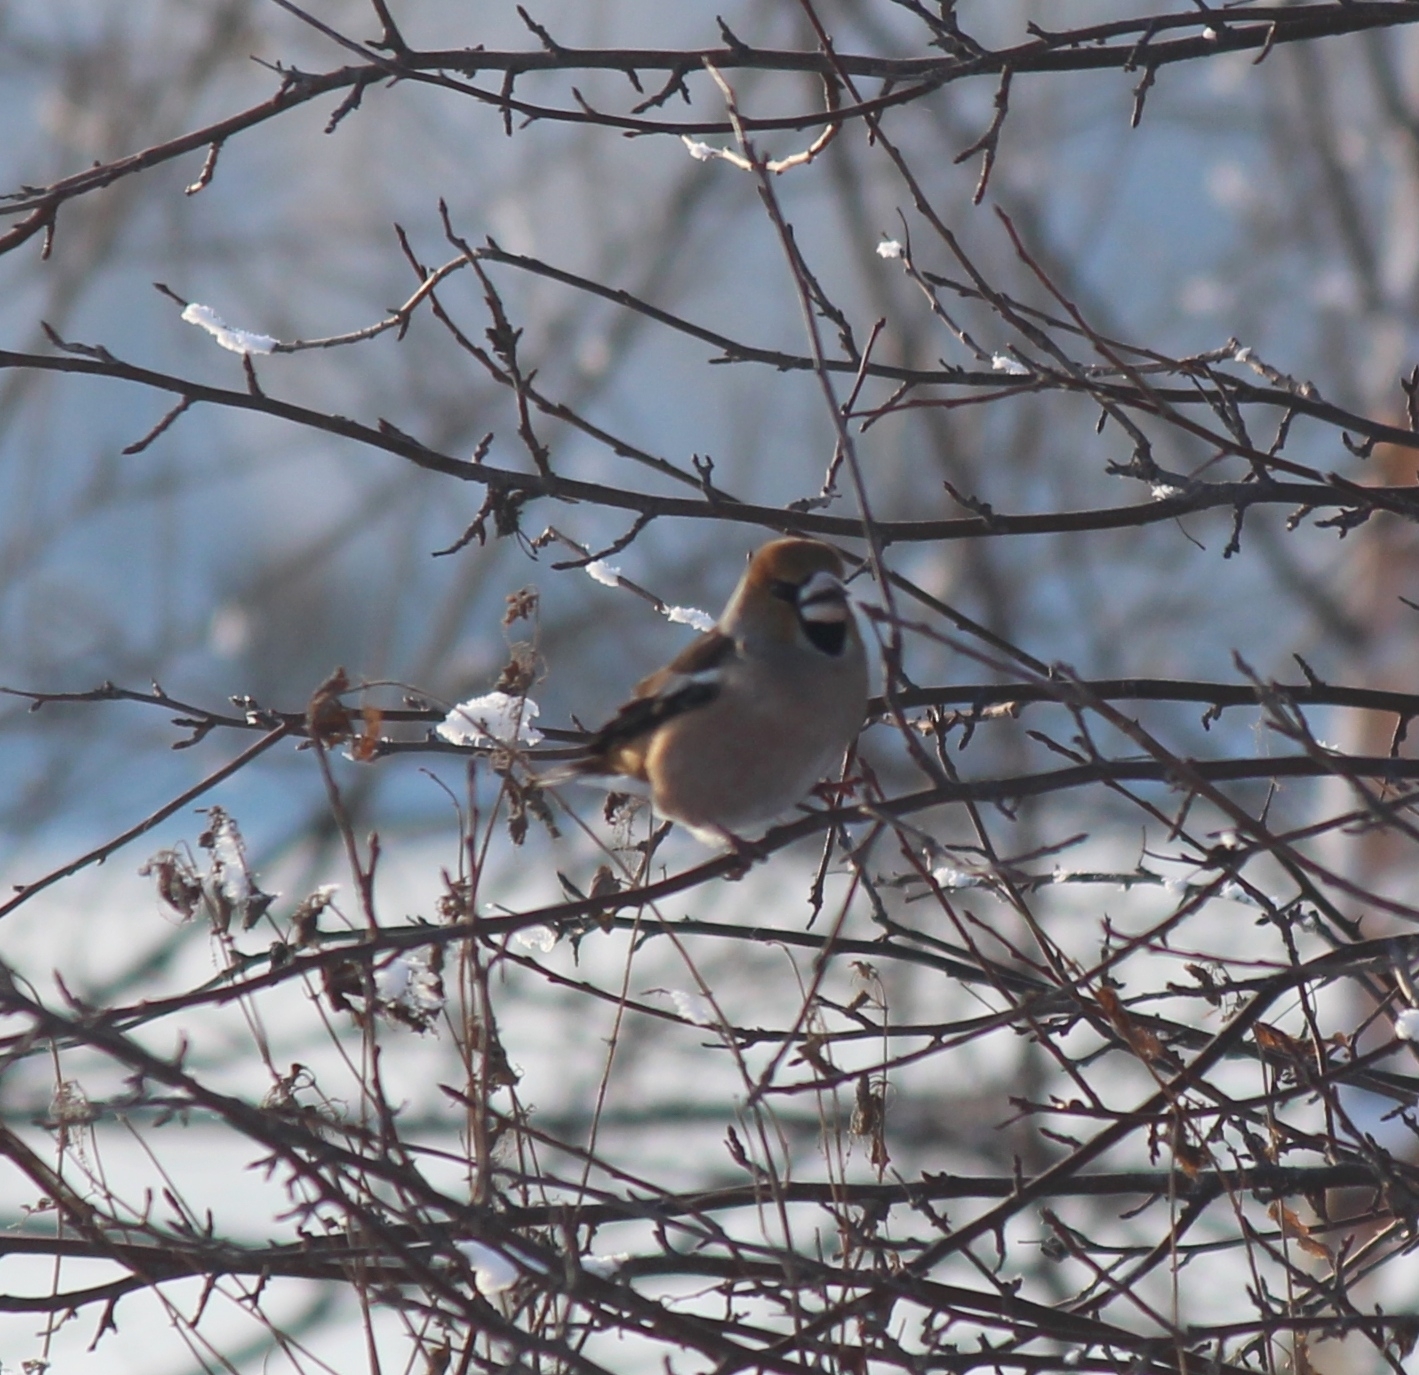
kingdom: Animalia
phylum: Chordata
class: Aves
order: Passeriformes
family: Fringillidae
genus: Coccothraustes
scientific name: Coccothraustes coccothraustes
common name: Hawfinch
